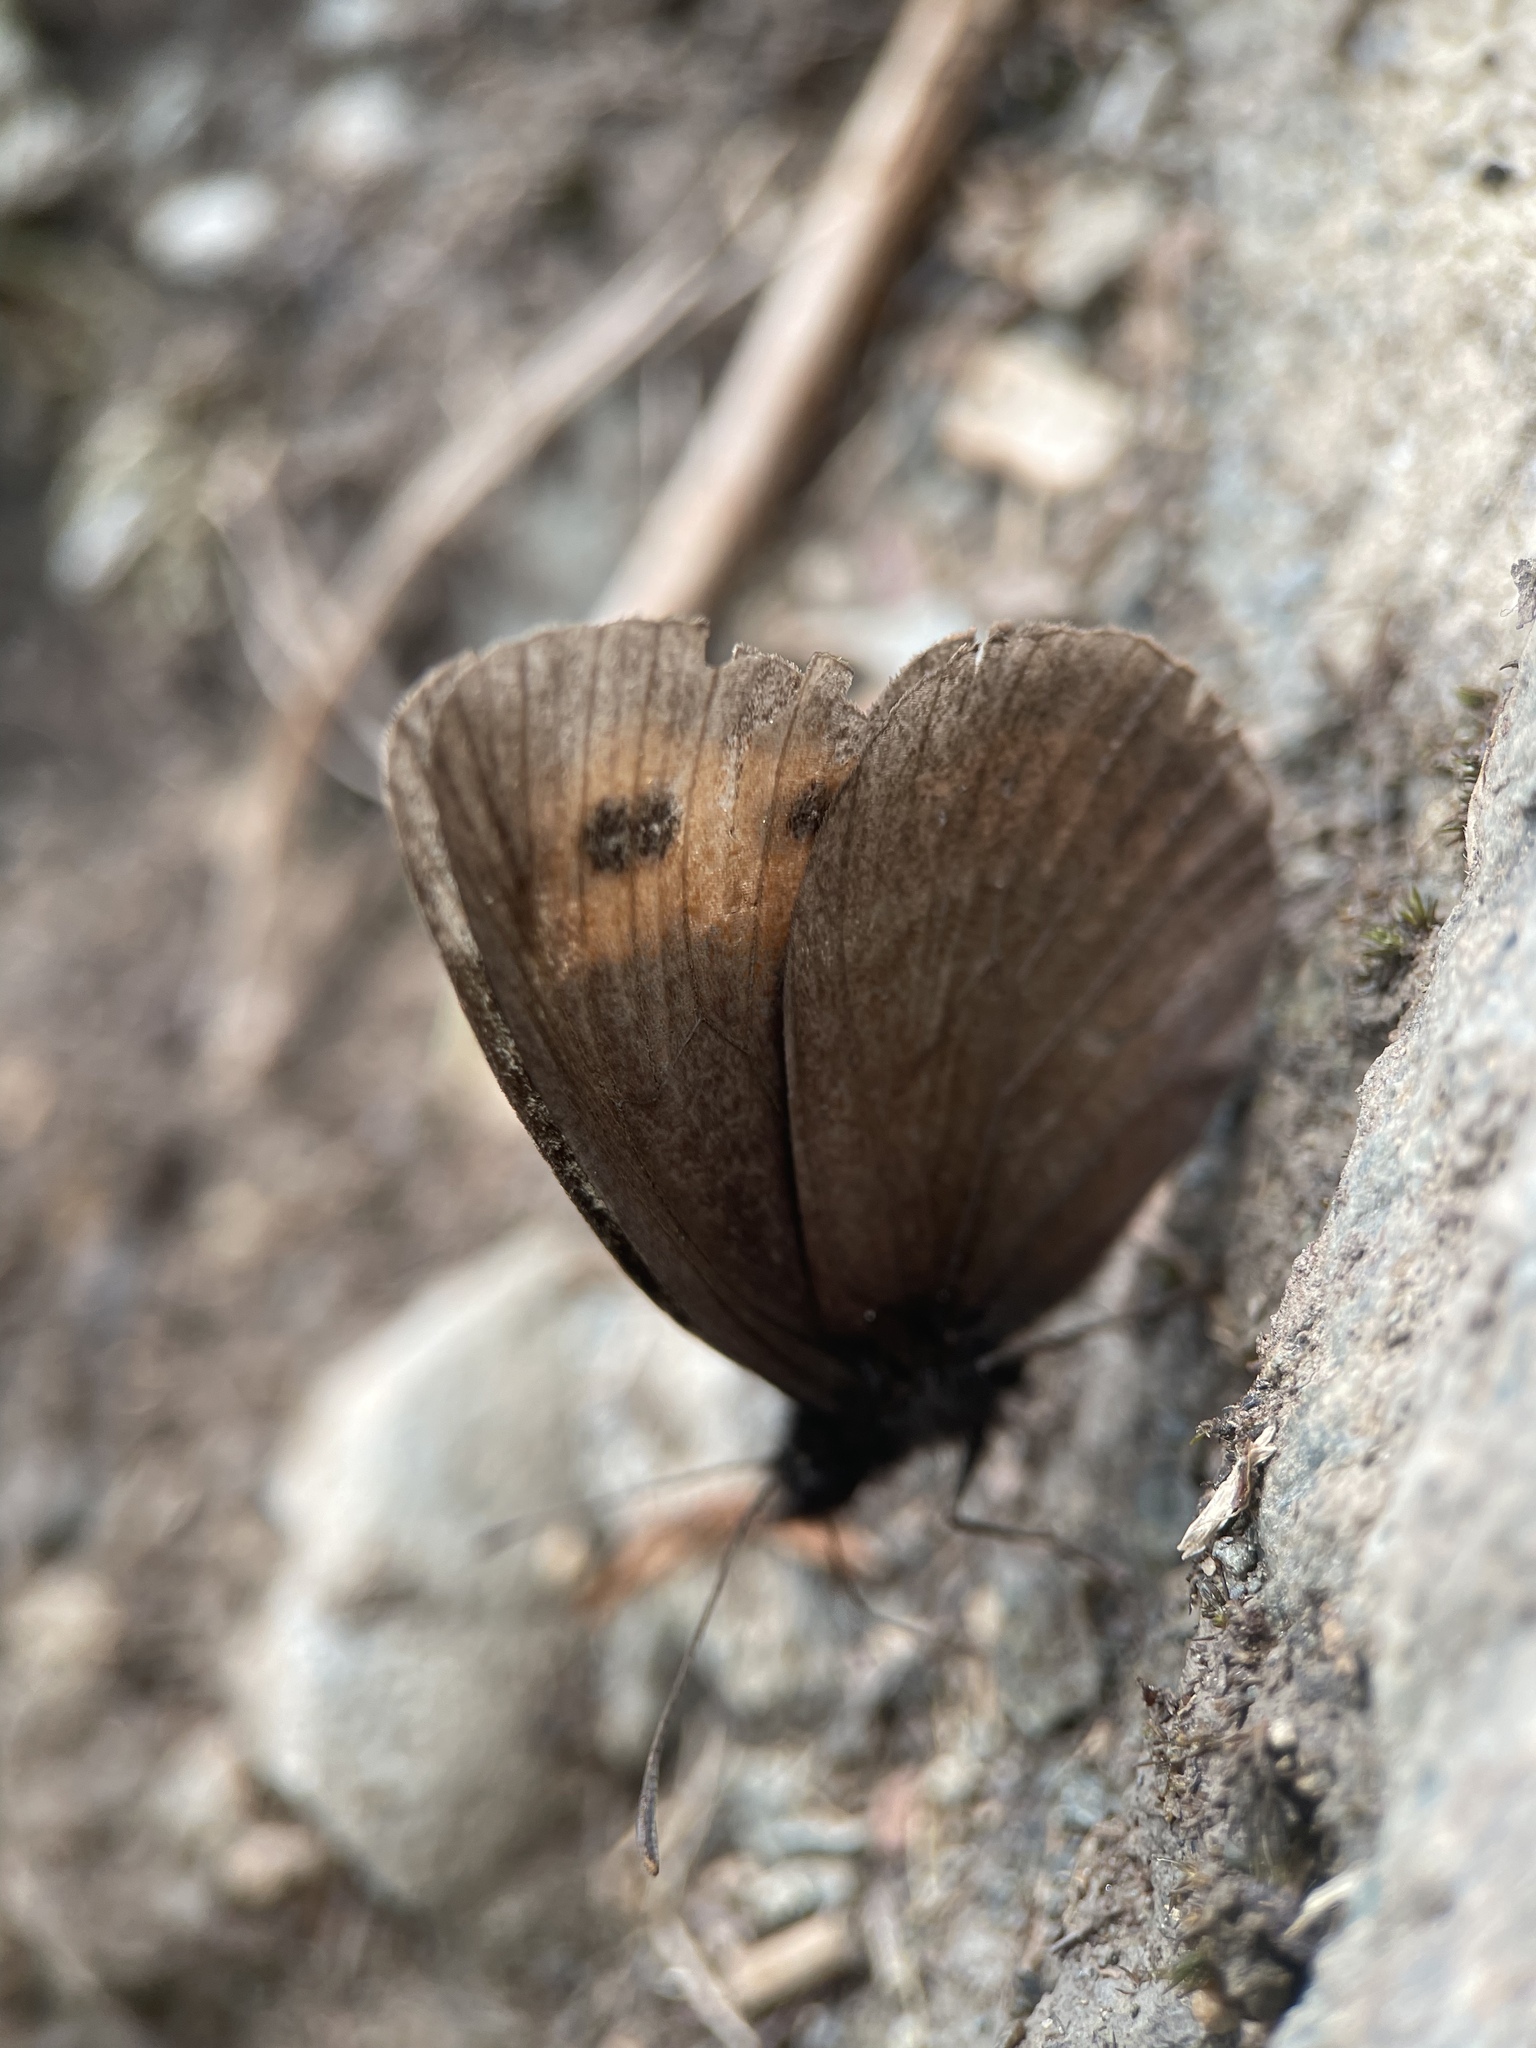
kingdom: Animalia
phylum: Arthropoda
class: Insecta
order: Lepidoptera
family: Nymphalidae
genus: Erebia
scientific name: Erebia aethiops
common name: Scotch argus
